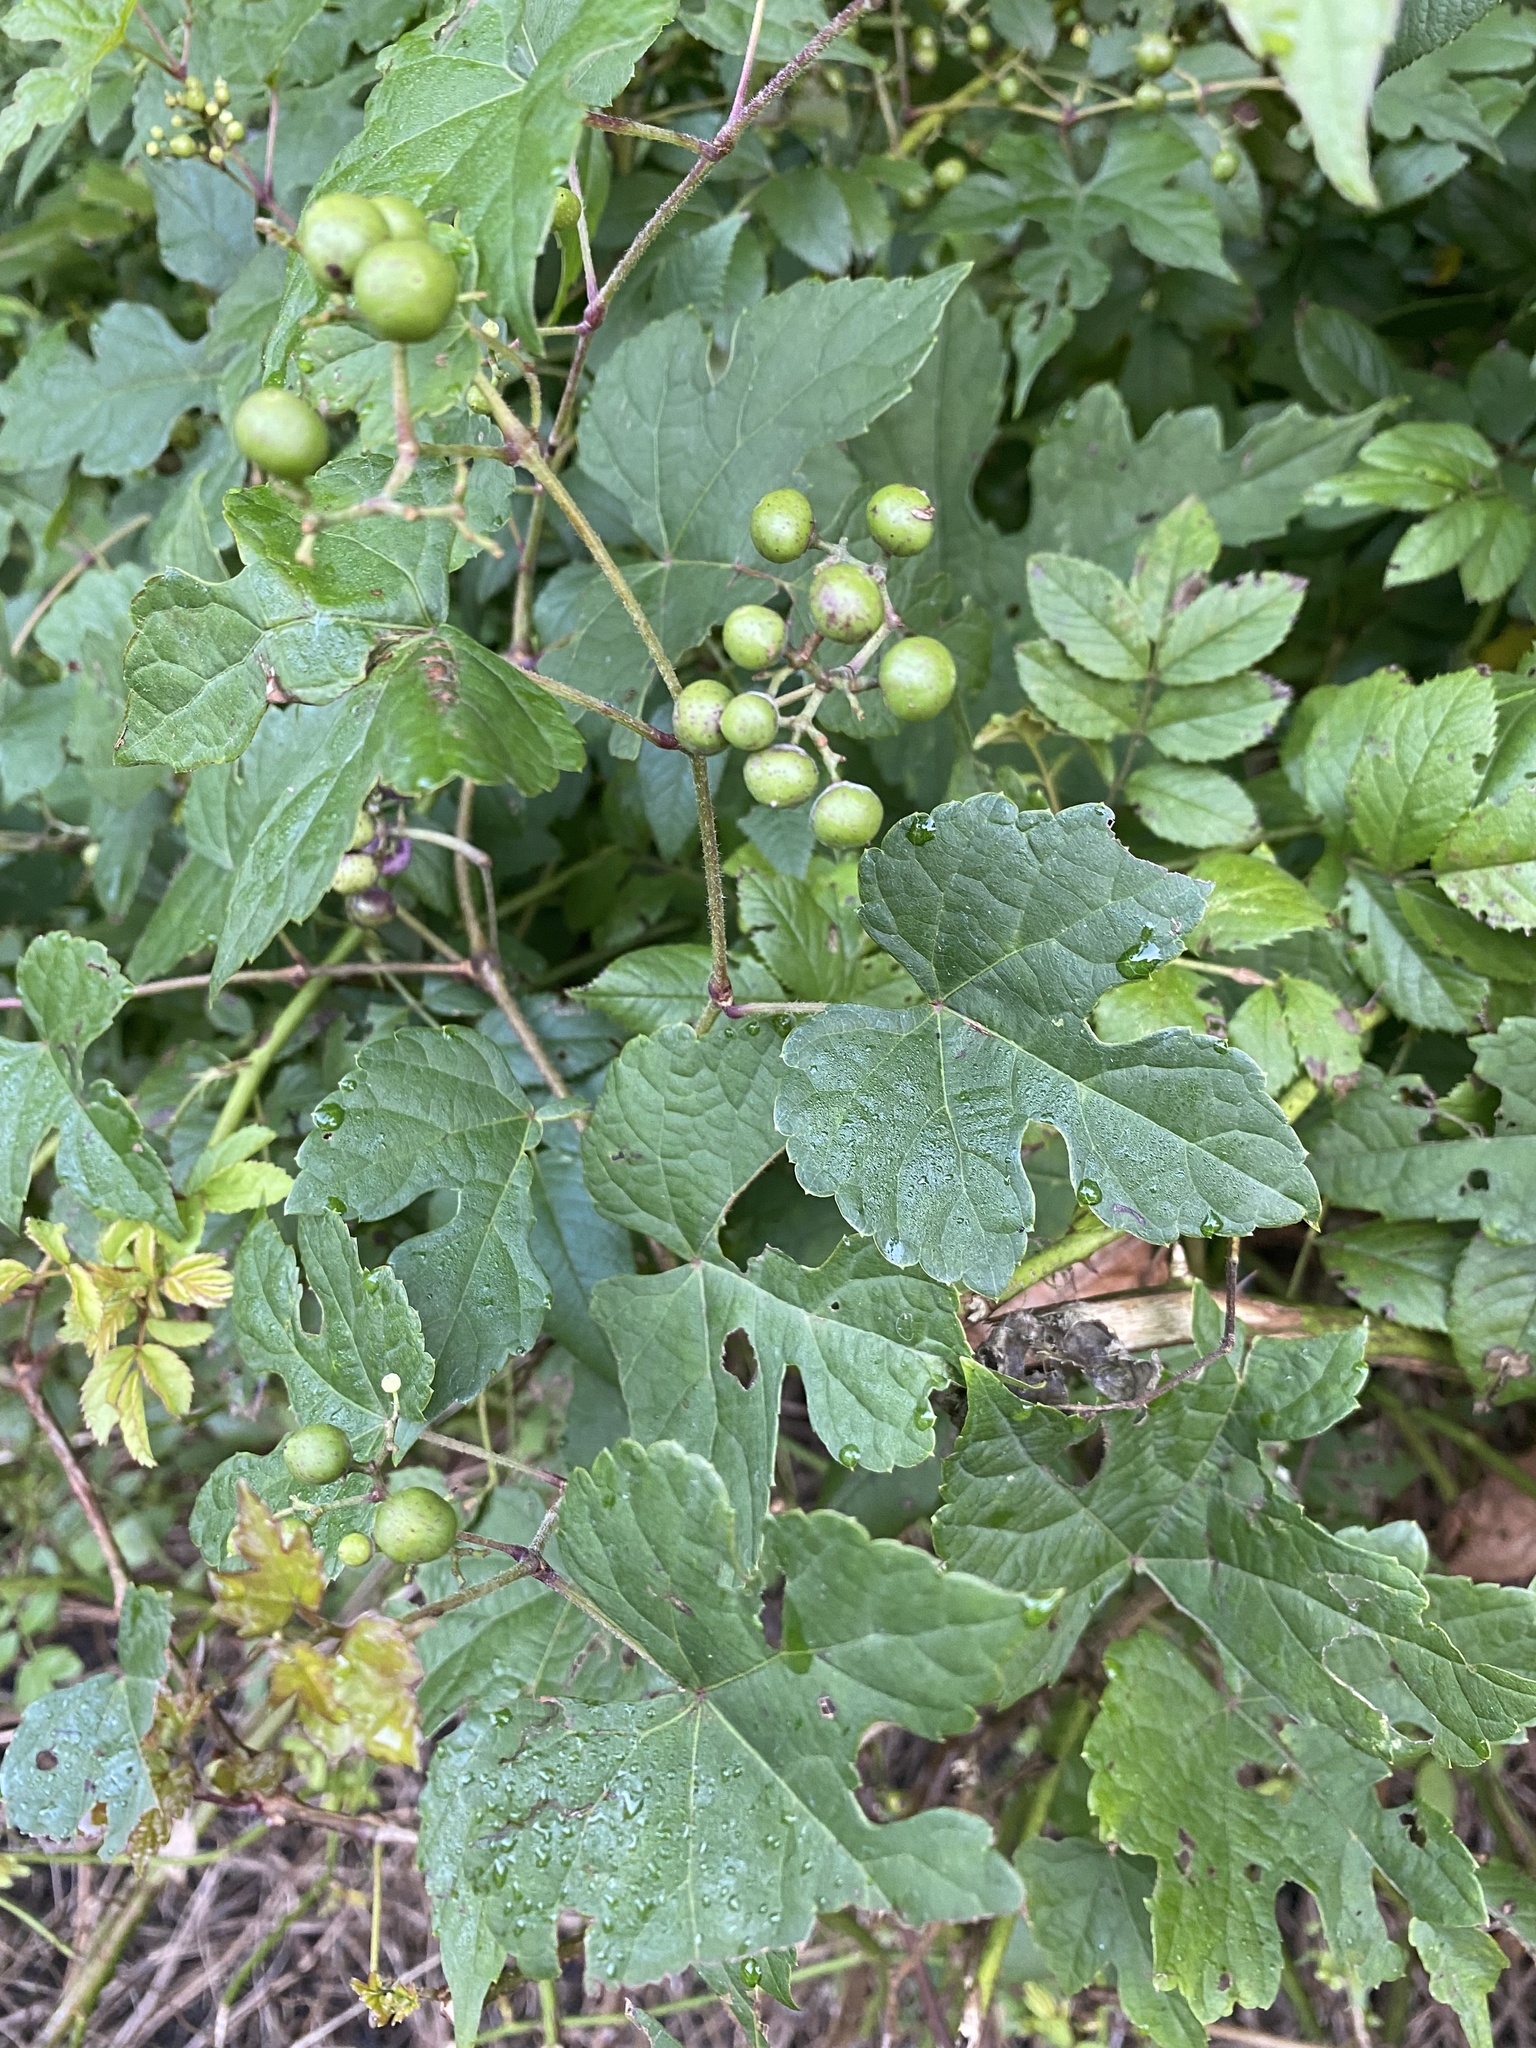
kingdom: Plantae
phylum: Tracheophyta
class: Magnoliopsida
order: Vitales
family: Vitaceae
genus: Ampelopsis
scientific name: Ampelopsis glandulosa
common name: Amur peppervine
